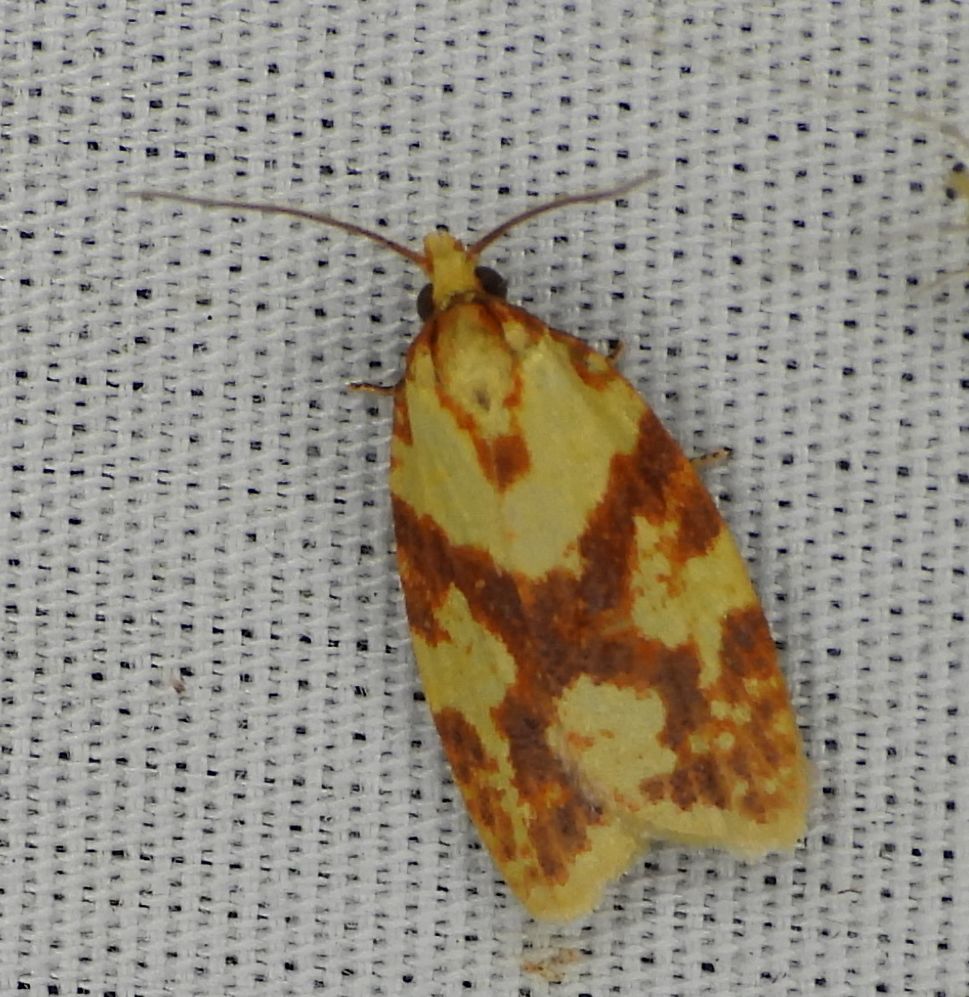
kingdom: Animalia
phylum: Arthropoda
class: Insecta
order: Lepidoptera
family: Tortricidae
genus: Sparganothis
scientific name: Sparganothis sulfureana
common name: Sparganothis fruitworm moth
